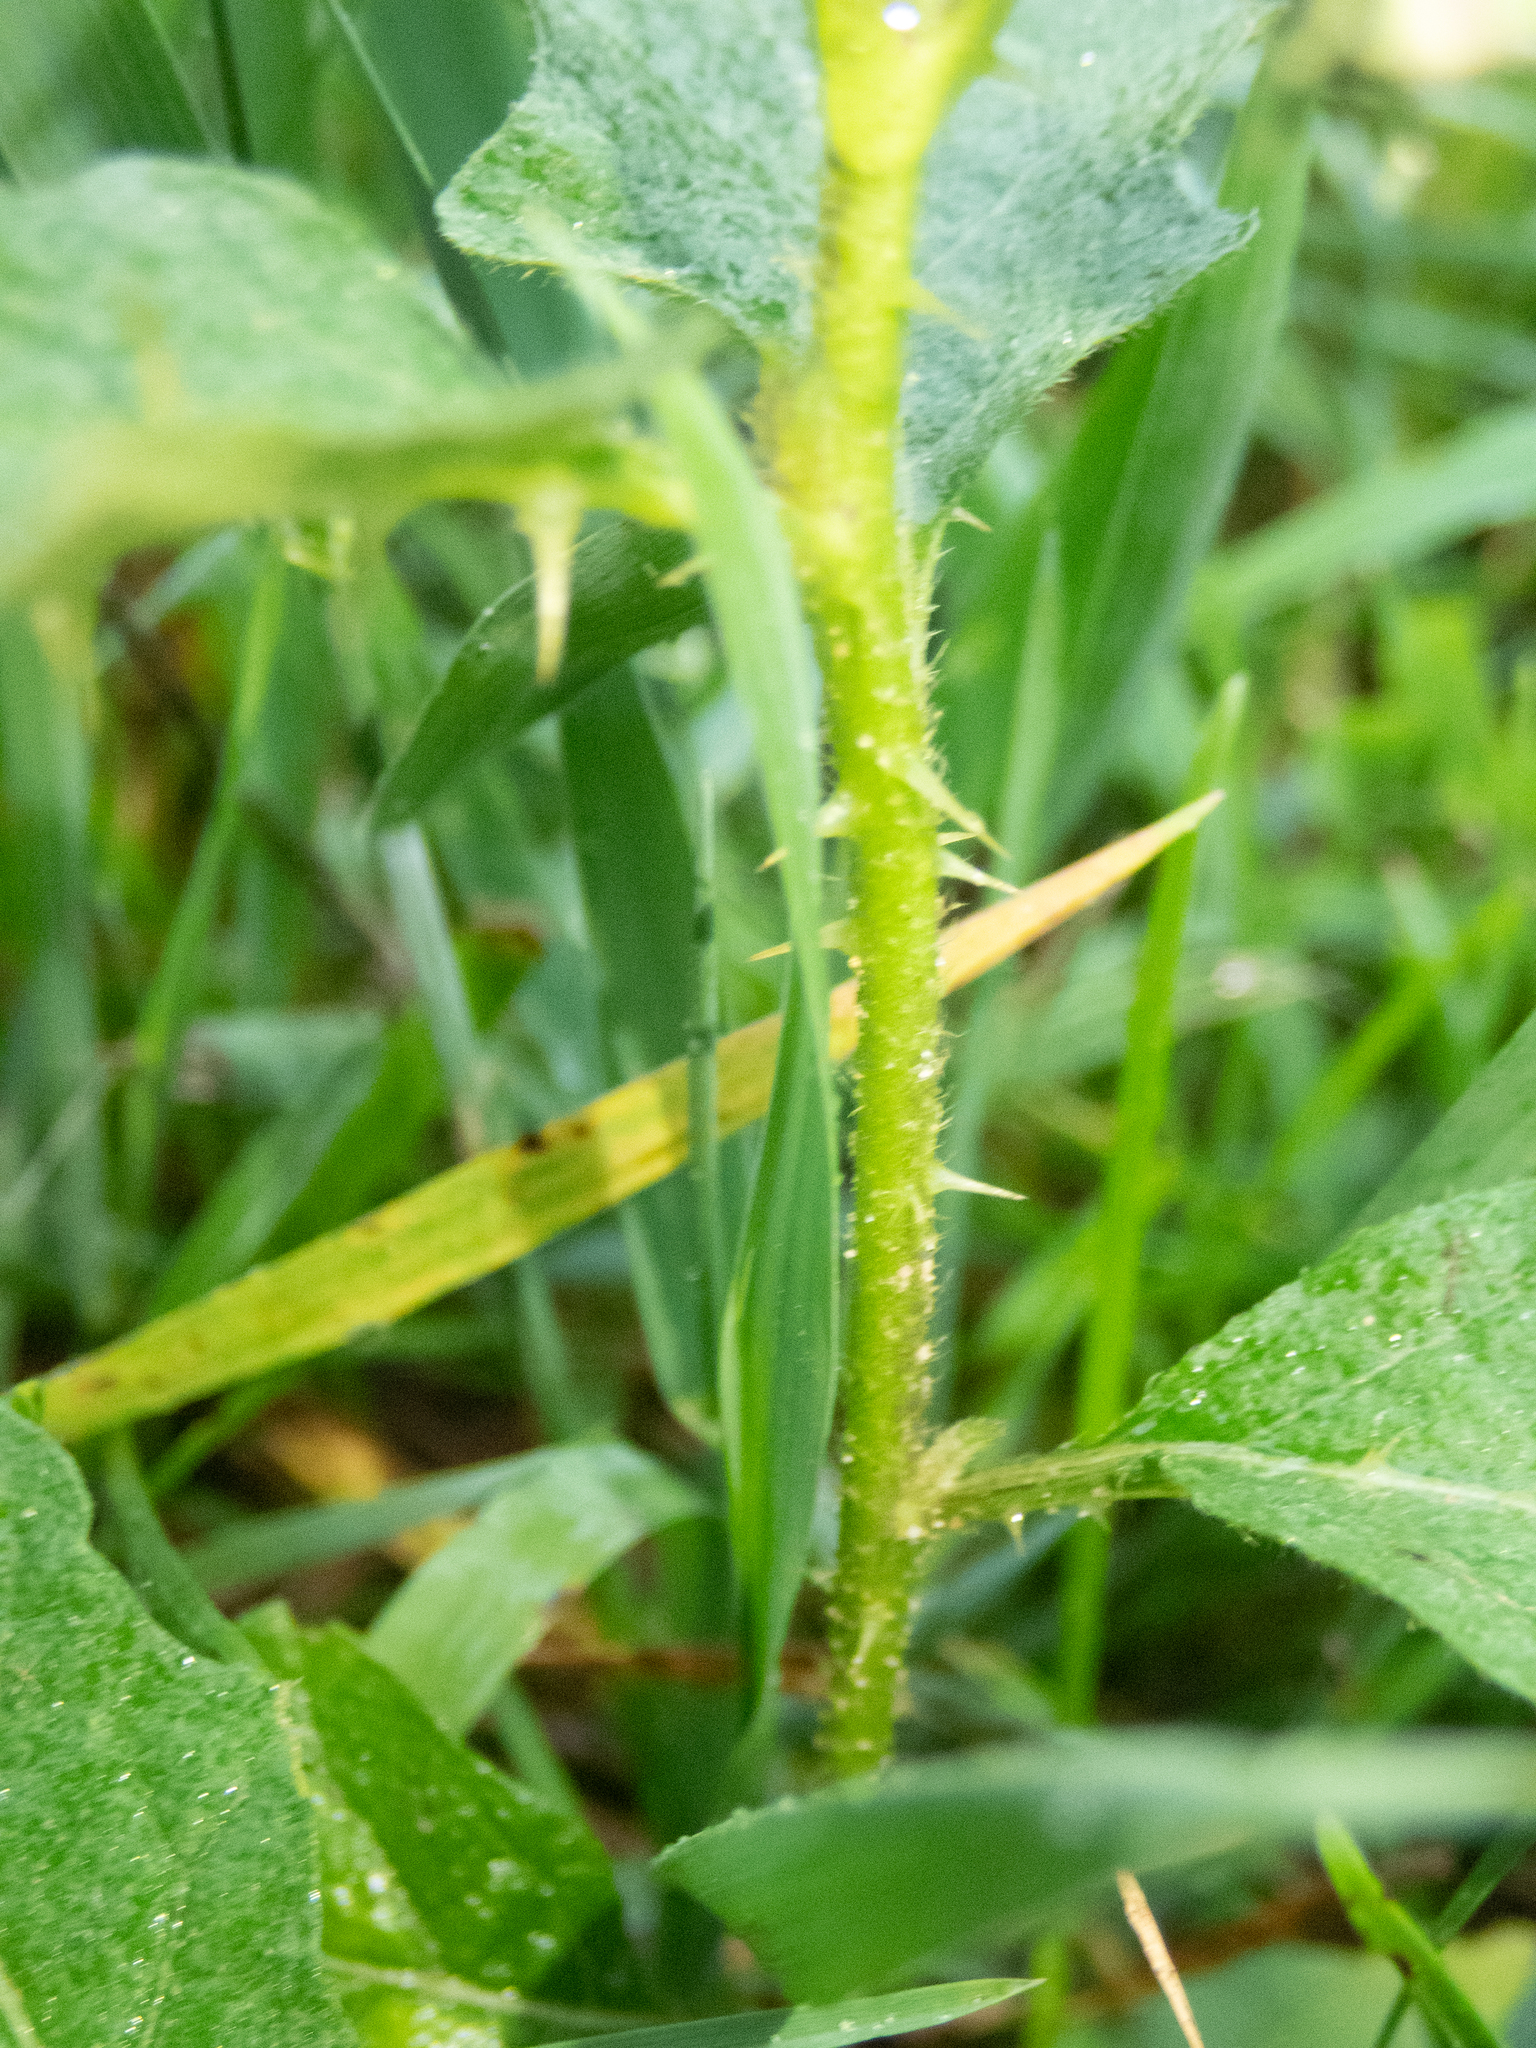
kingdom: Plantae
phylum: Tracheophyta
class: Magnoliopsida
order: Solanales
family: Solanaceae
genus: Solanum
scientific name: Solanum carolinense
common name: Horse-nettle
